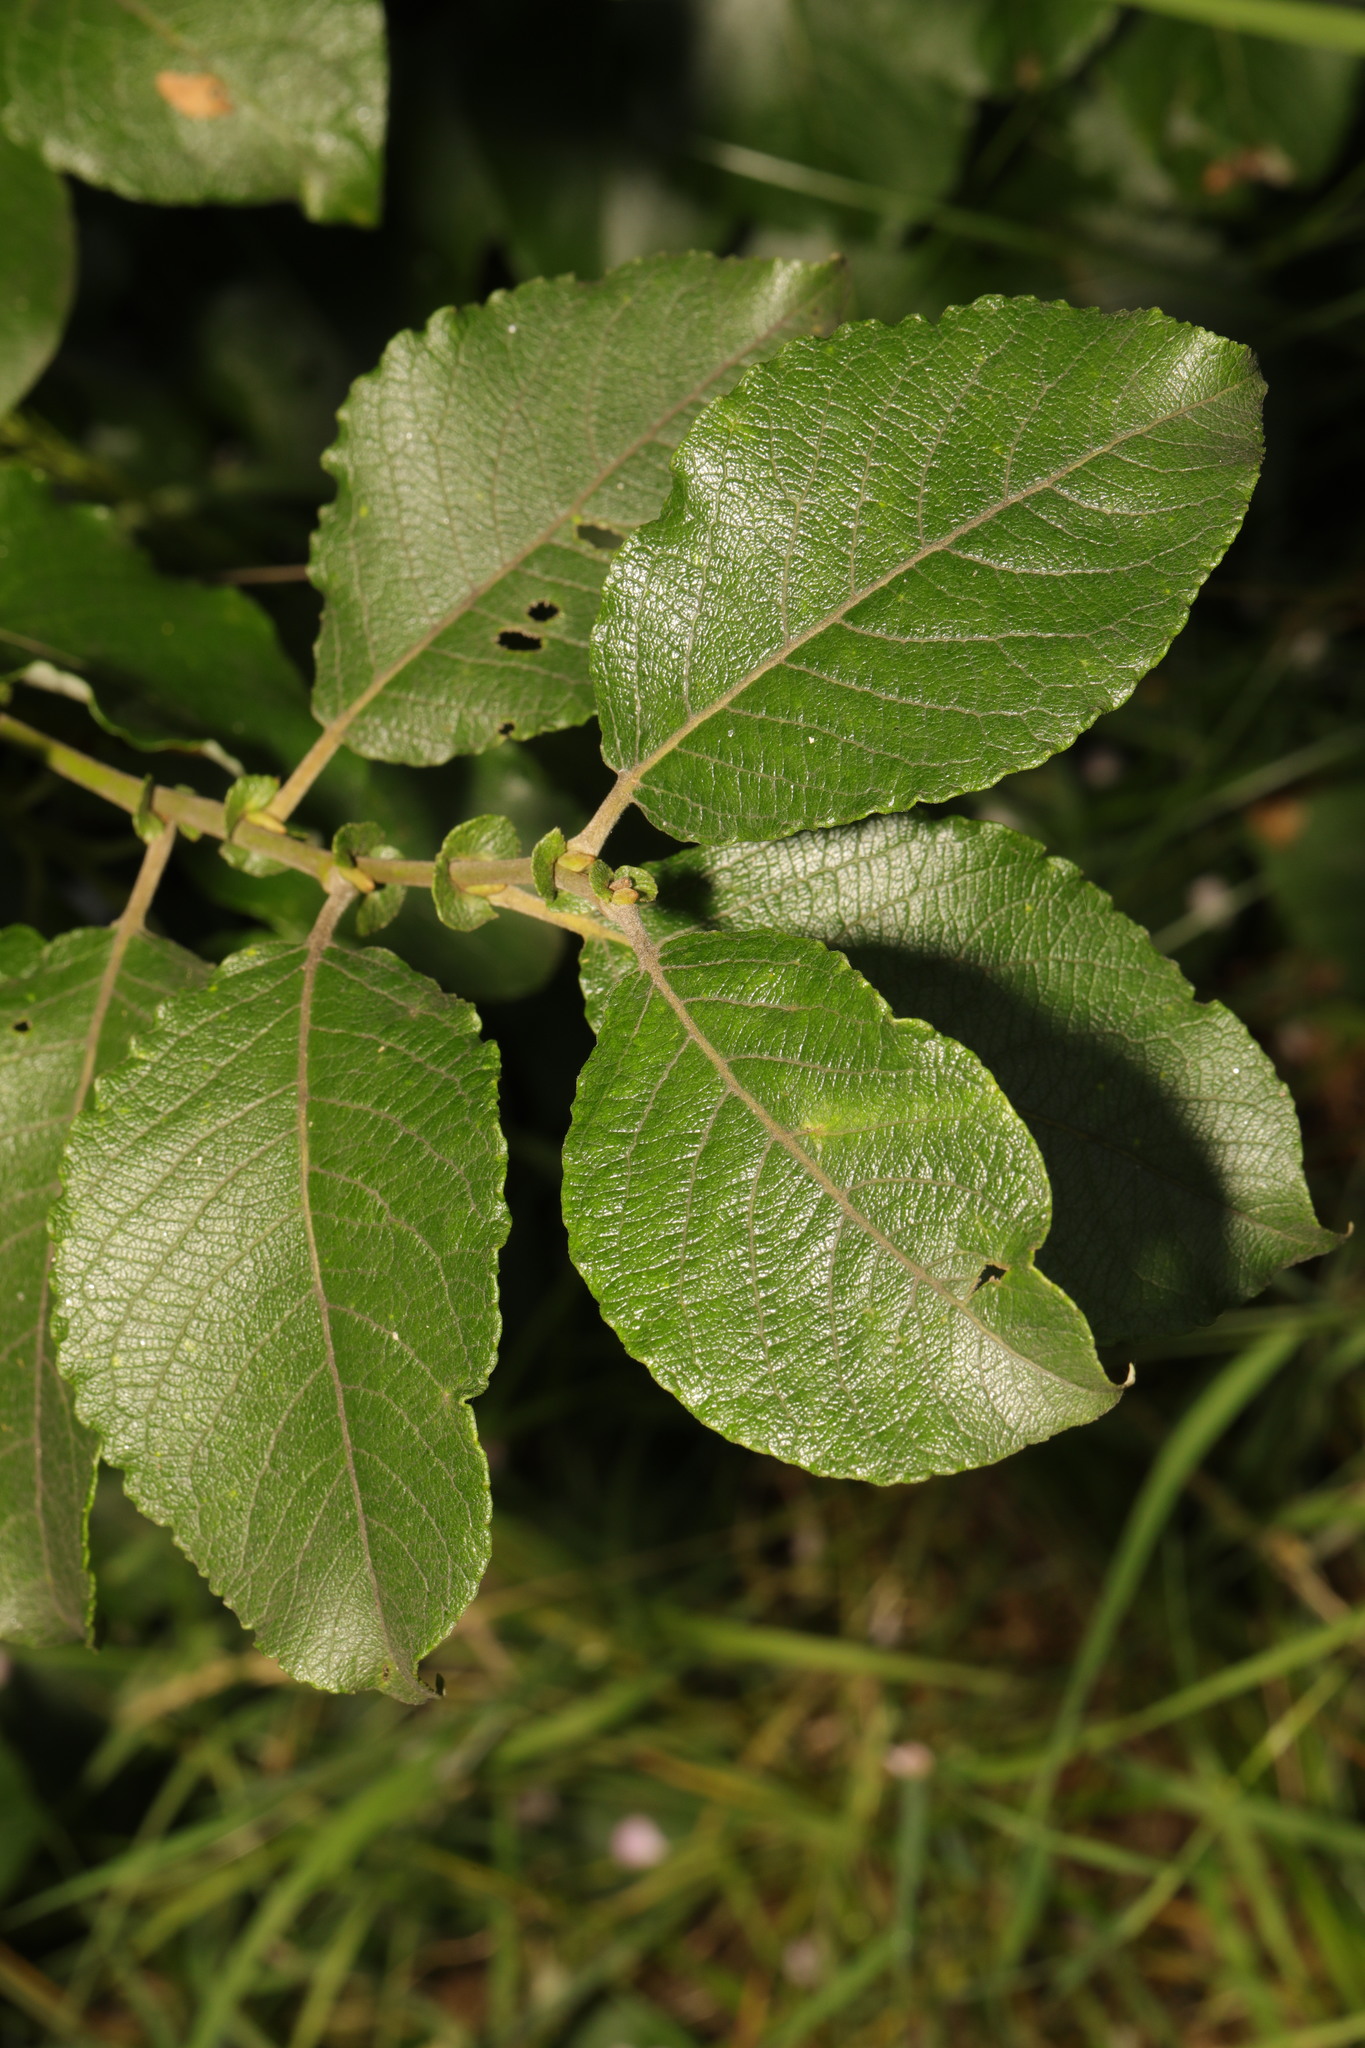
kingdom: Plantae
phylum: Tracheophyta
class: Magnoliopsida
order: Malpighiales
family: Salicaceae
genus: Salix
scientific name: Salix caprea
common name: Goat willow
